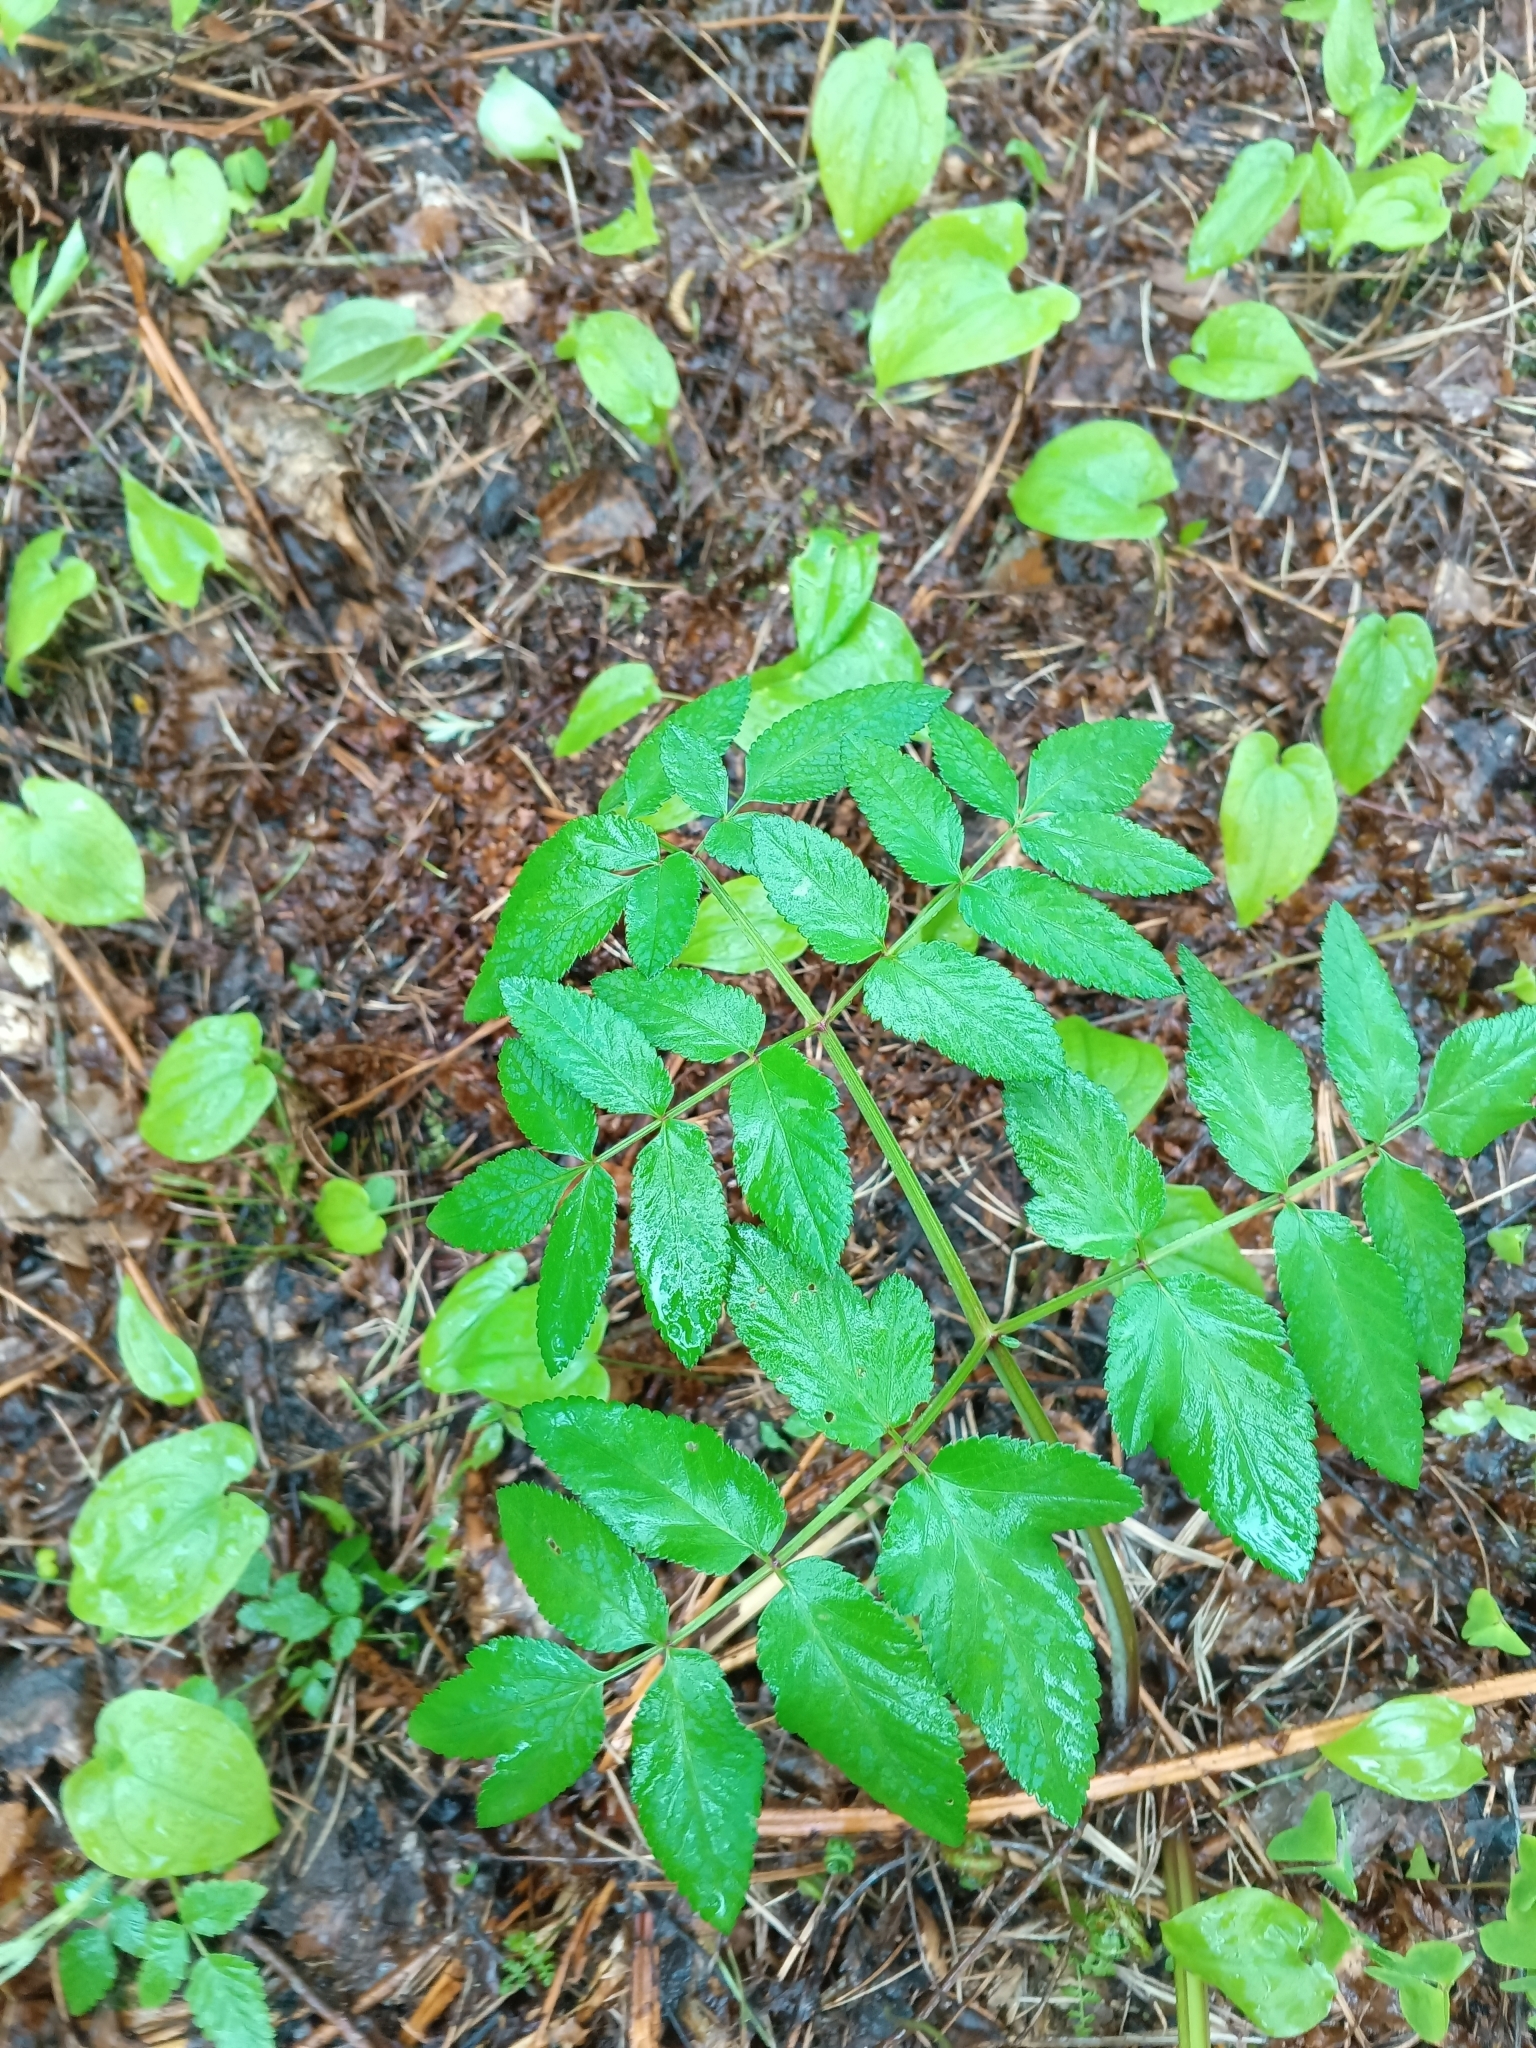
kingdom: Plantae
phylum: Tracheophyta
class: Magnoliopsida
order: Apiales
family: Apiaceae
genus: Angelica
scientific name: Angelica sylvestris
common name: Wild angelica
